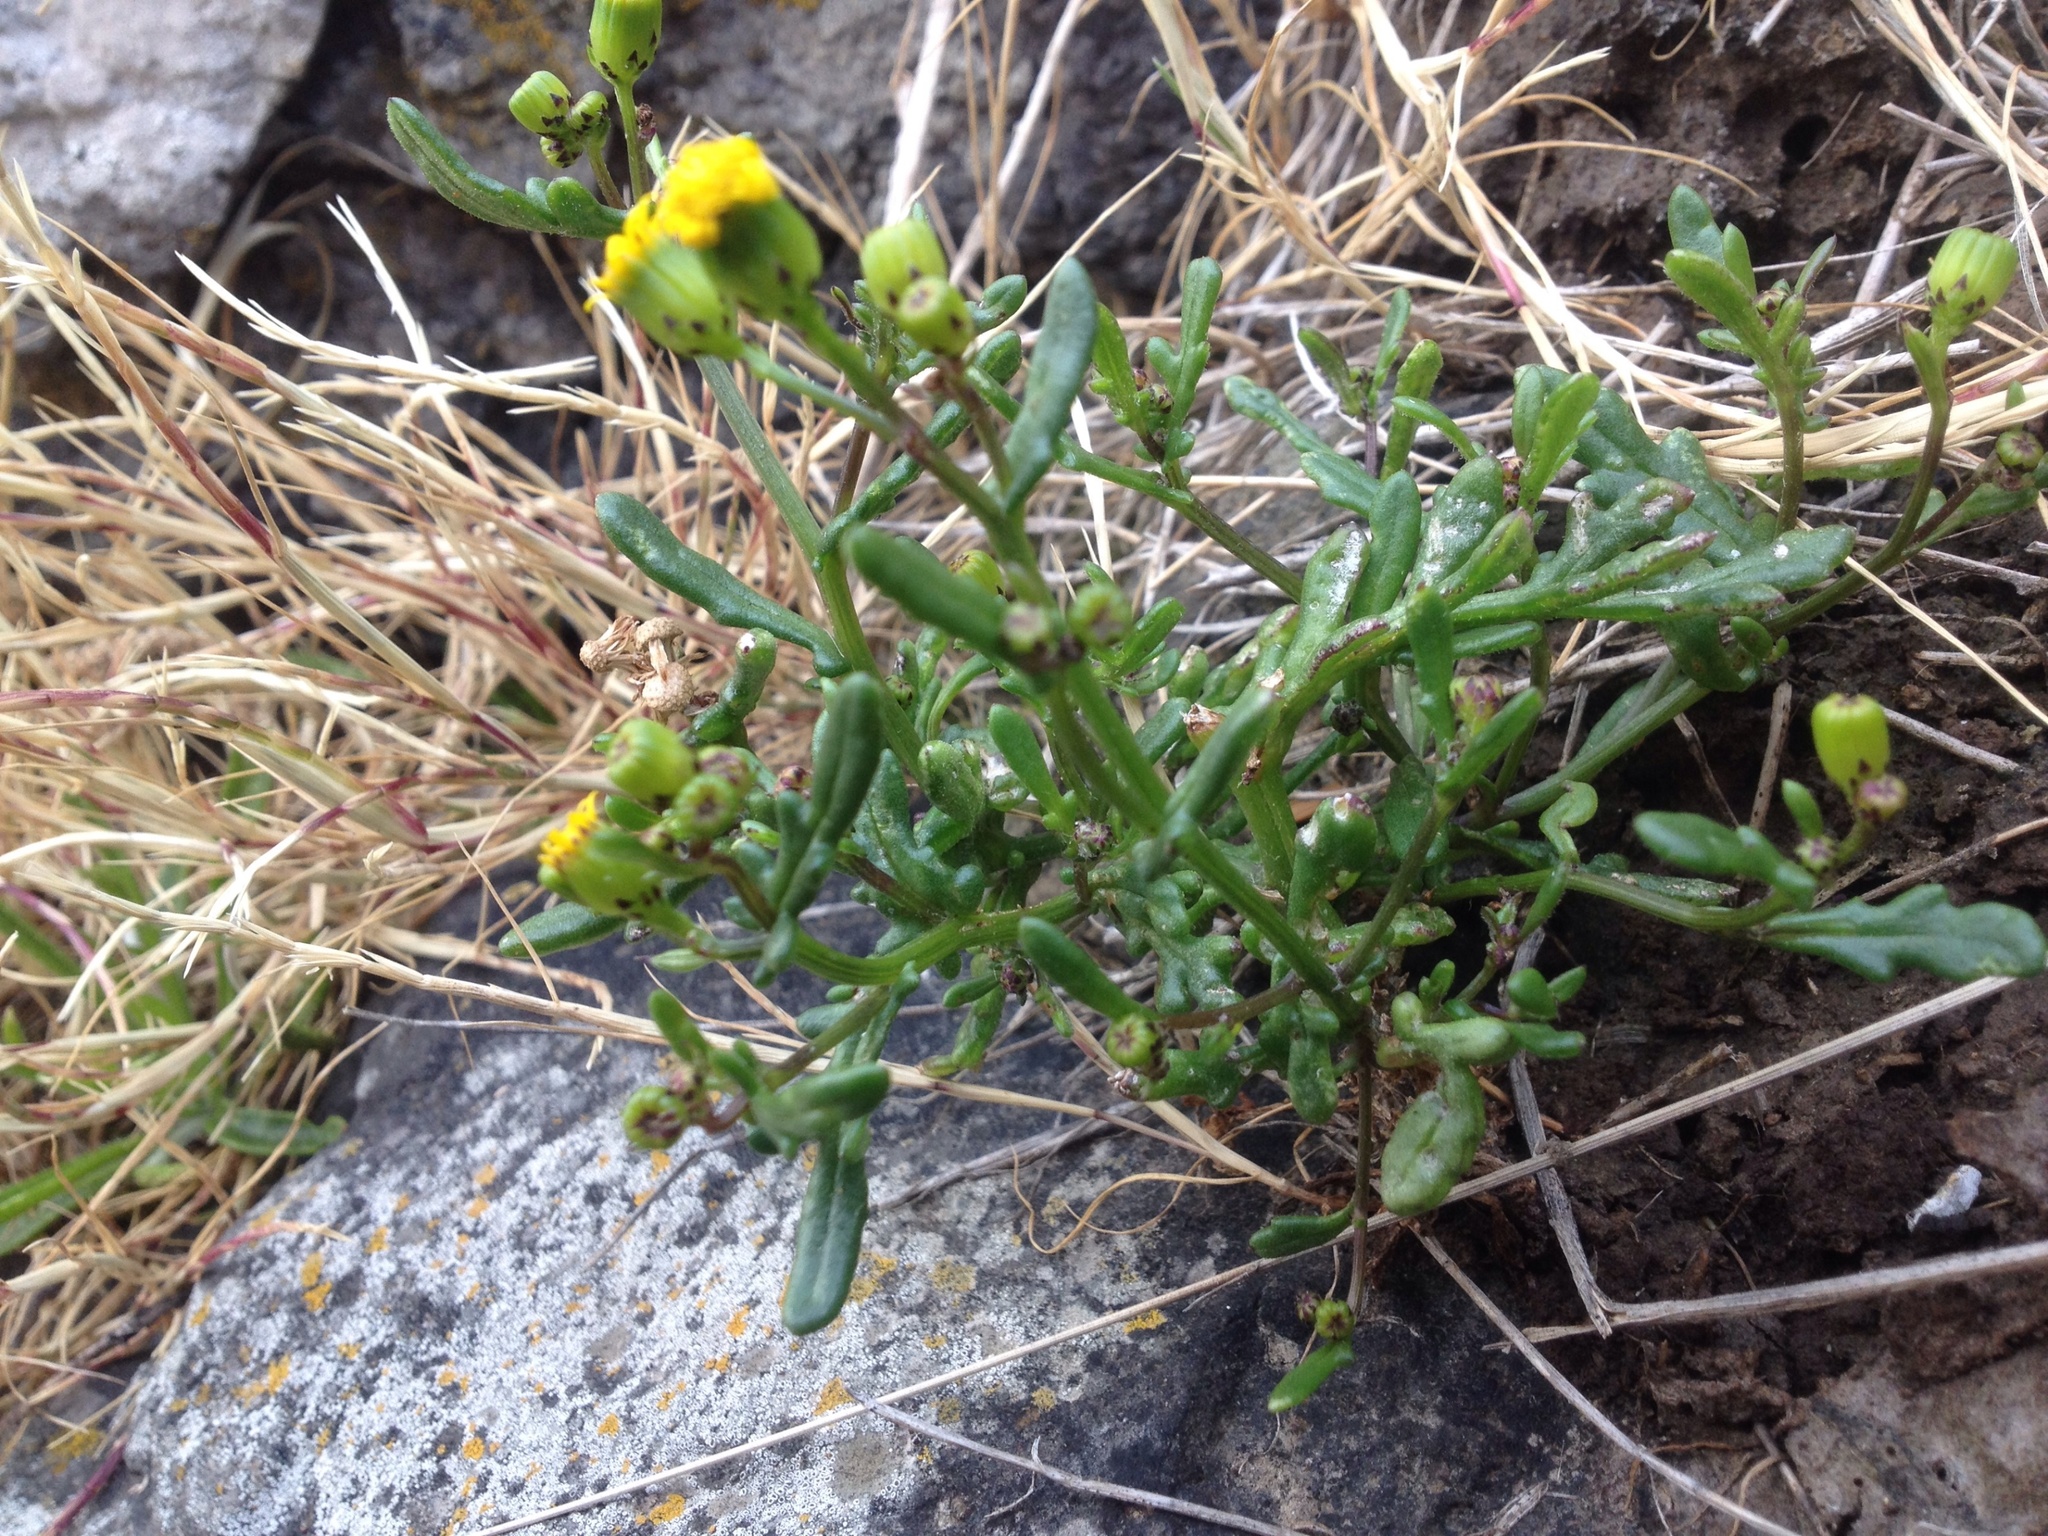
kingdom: Plantae
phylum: Tracheophyta
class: Magnoliopsida
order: Asterales
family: Asteraceae
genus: Senecio
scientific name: Senecio lautus
